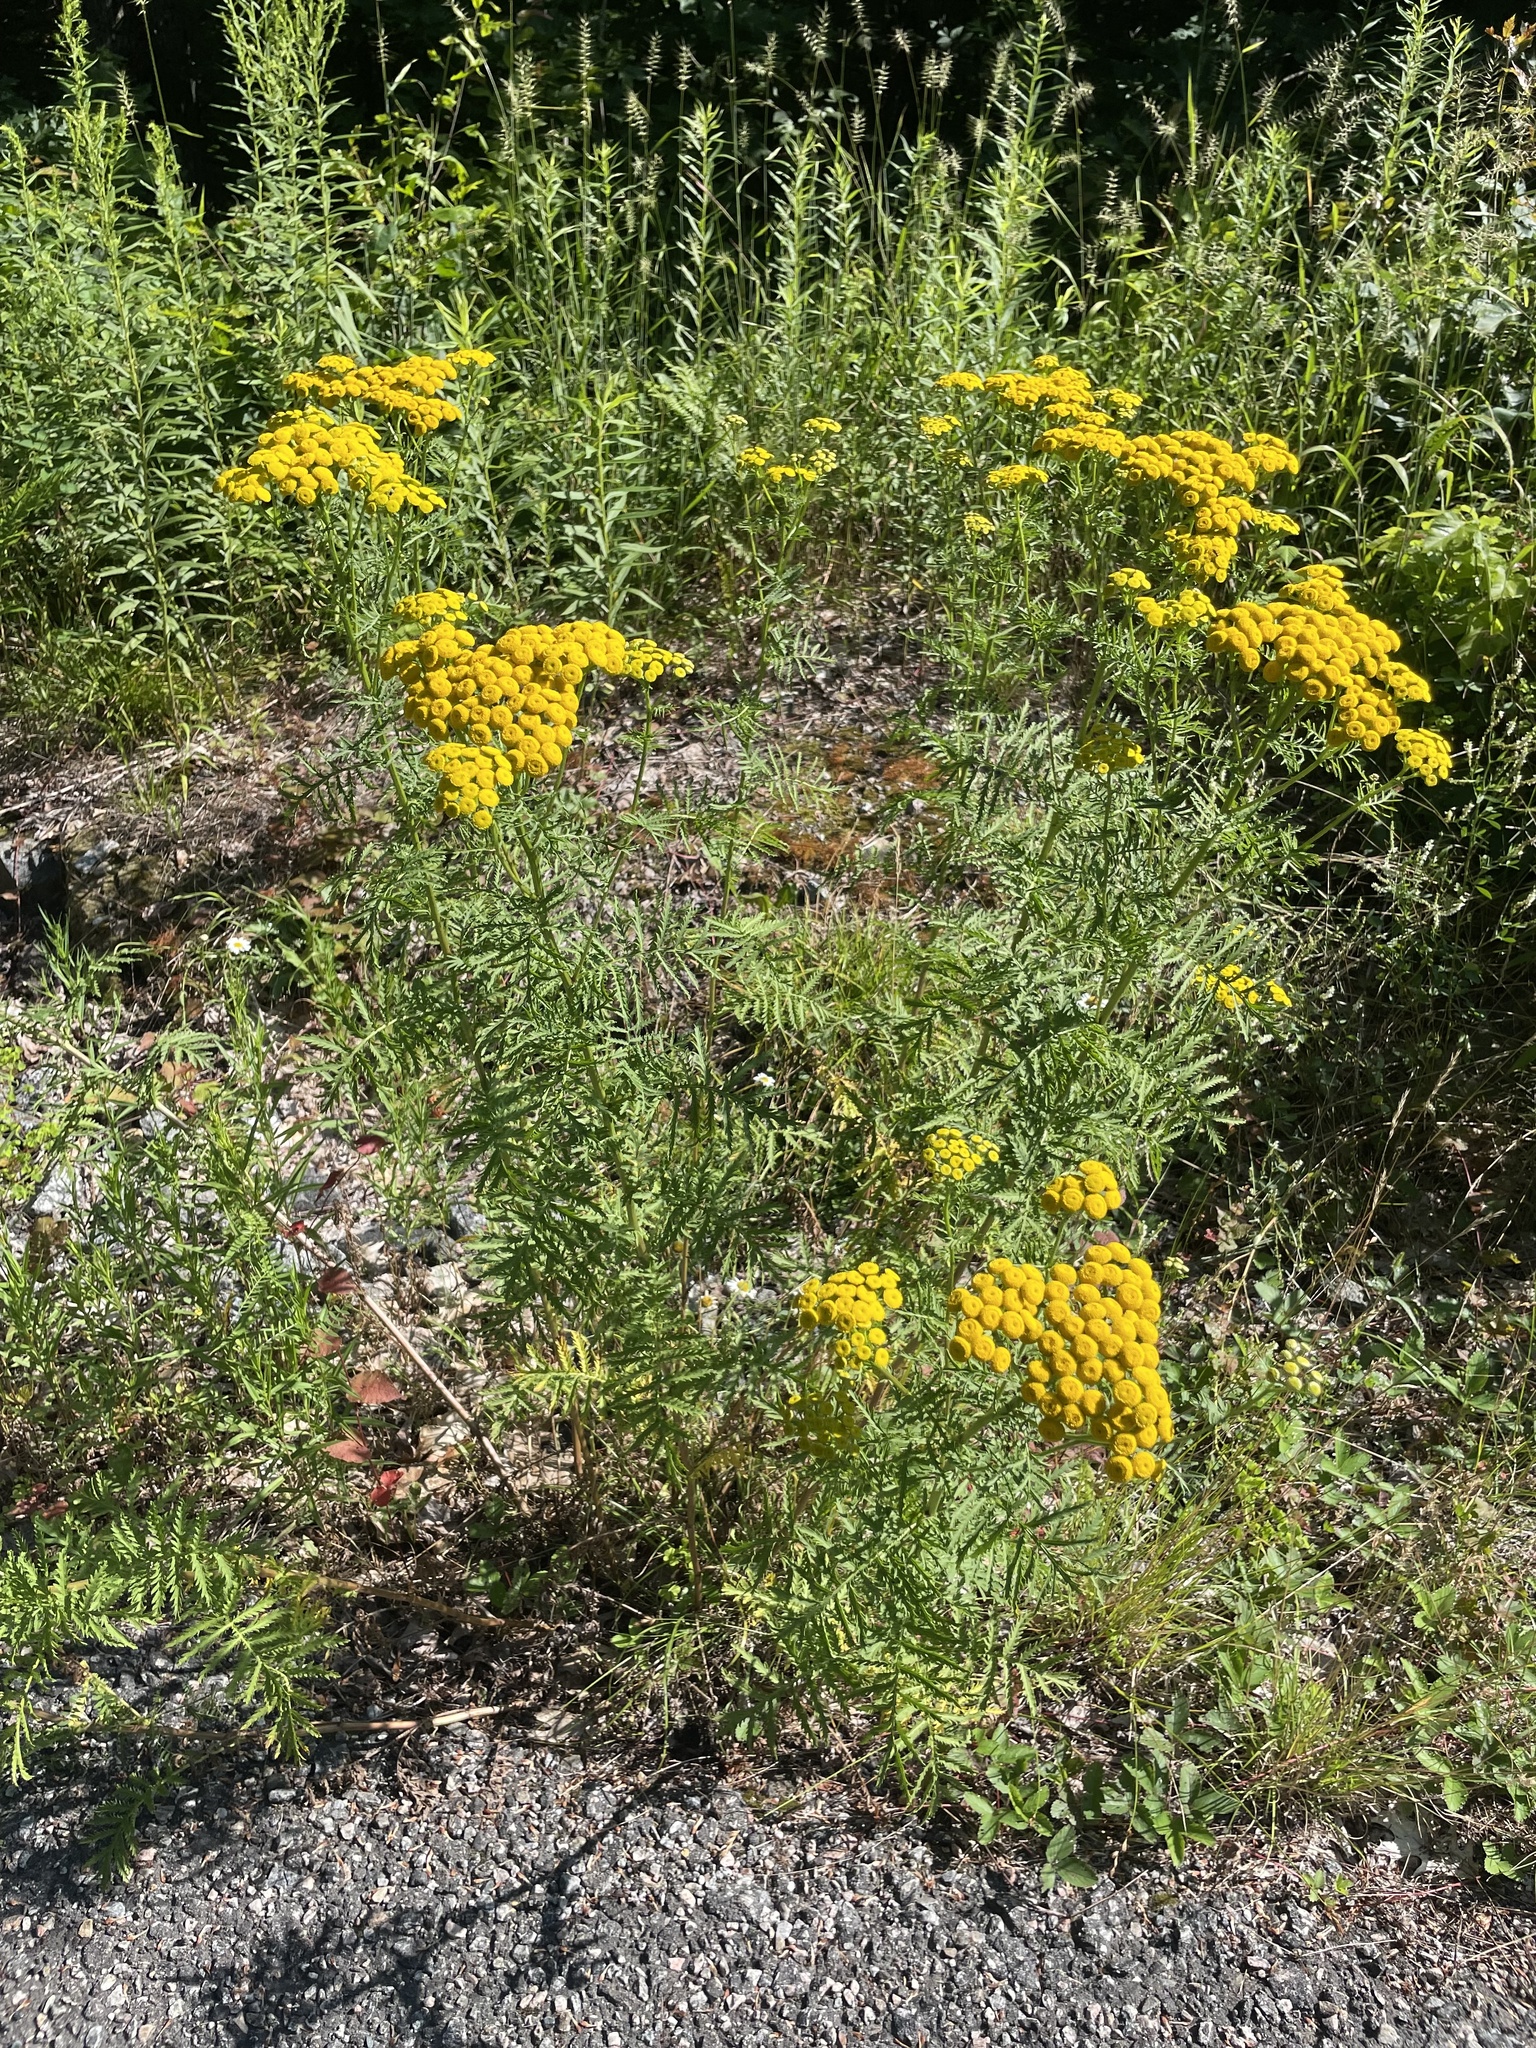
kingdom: Plantae
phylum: Tracheophyta
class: Magnoliopsida
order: Asterales
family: Asteraceae
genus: Tanacetum
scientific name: Tanacetum vulgare
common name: Common tansy
